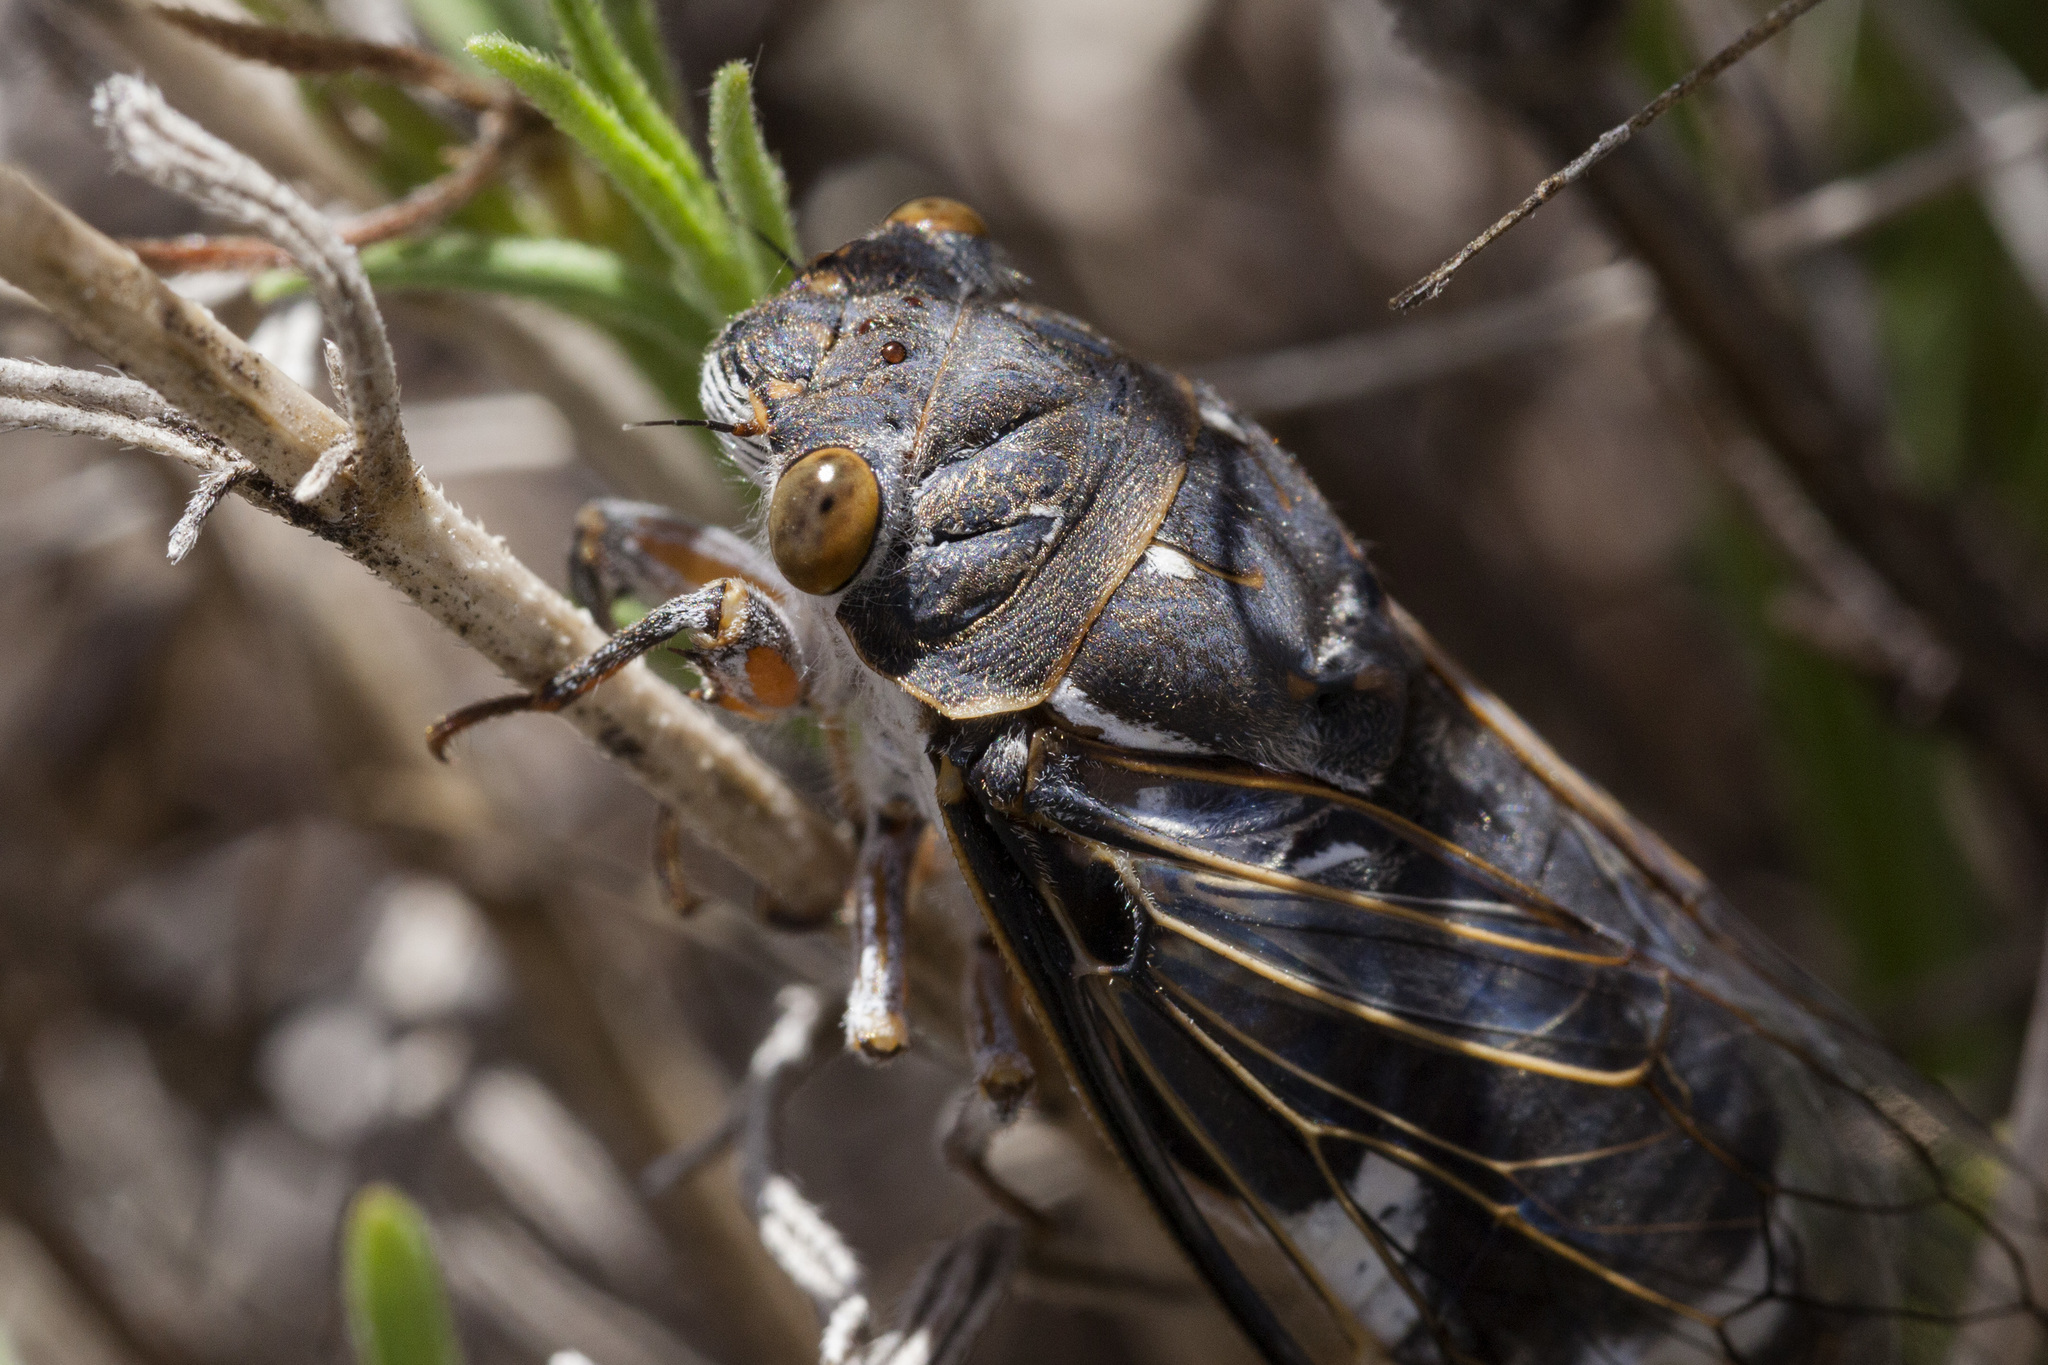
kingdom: Animalia
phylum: Arthropoda
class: Insecta
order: Hemiptera
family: Cicadidae
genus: Hadoa
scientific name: Hadoa neomexicensis
